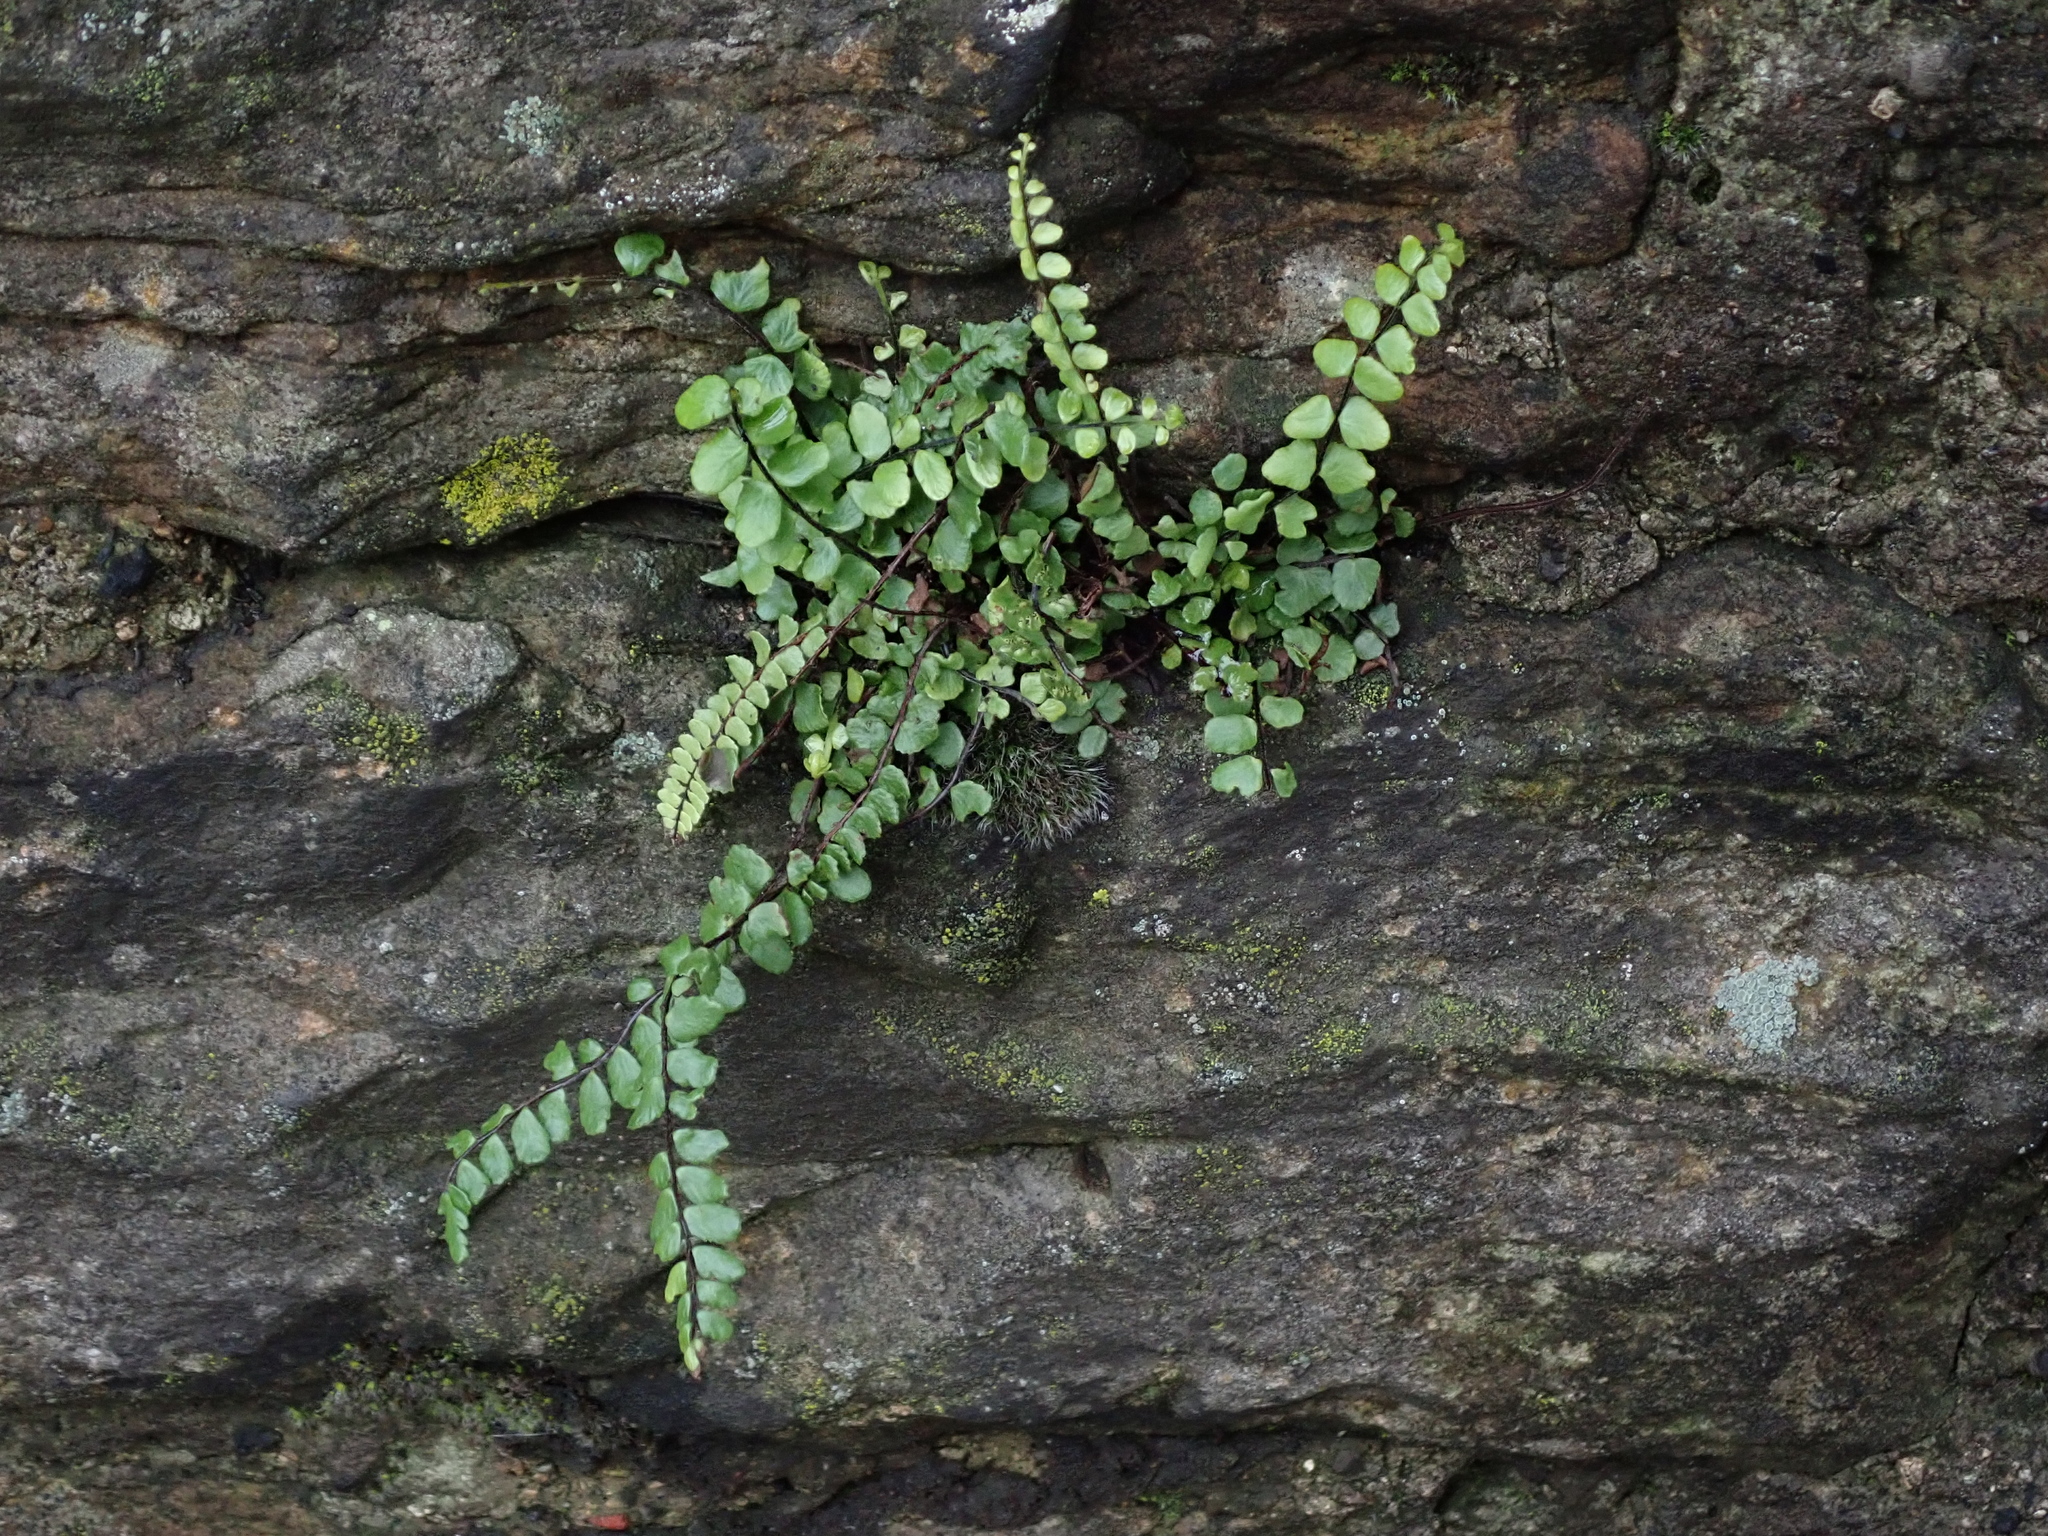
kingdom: Plantae
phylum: Tracheophyta
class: Polypodiopsida
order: Polypodiales
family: Aspleniaceae
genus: Asplenium
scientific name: Asplenium trichomanes
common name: Maidenhair spleenwort
